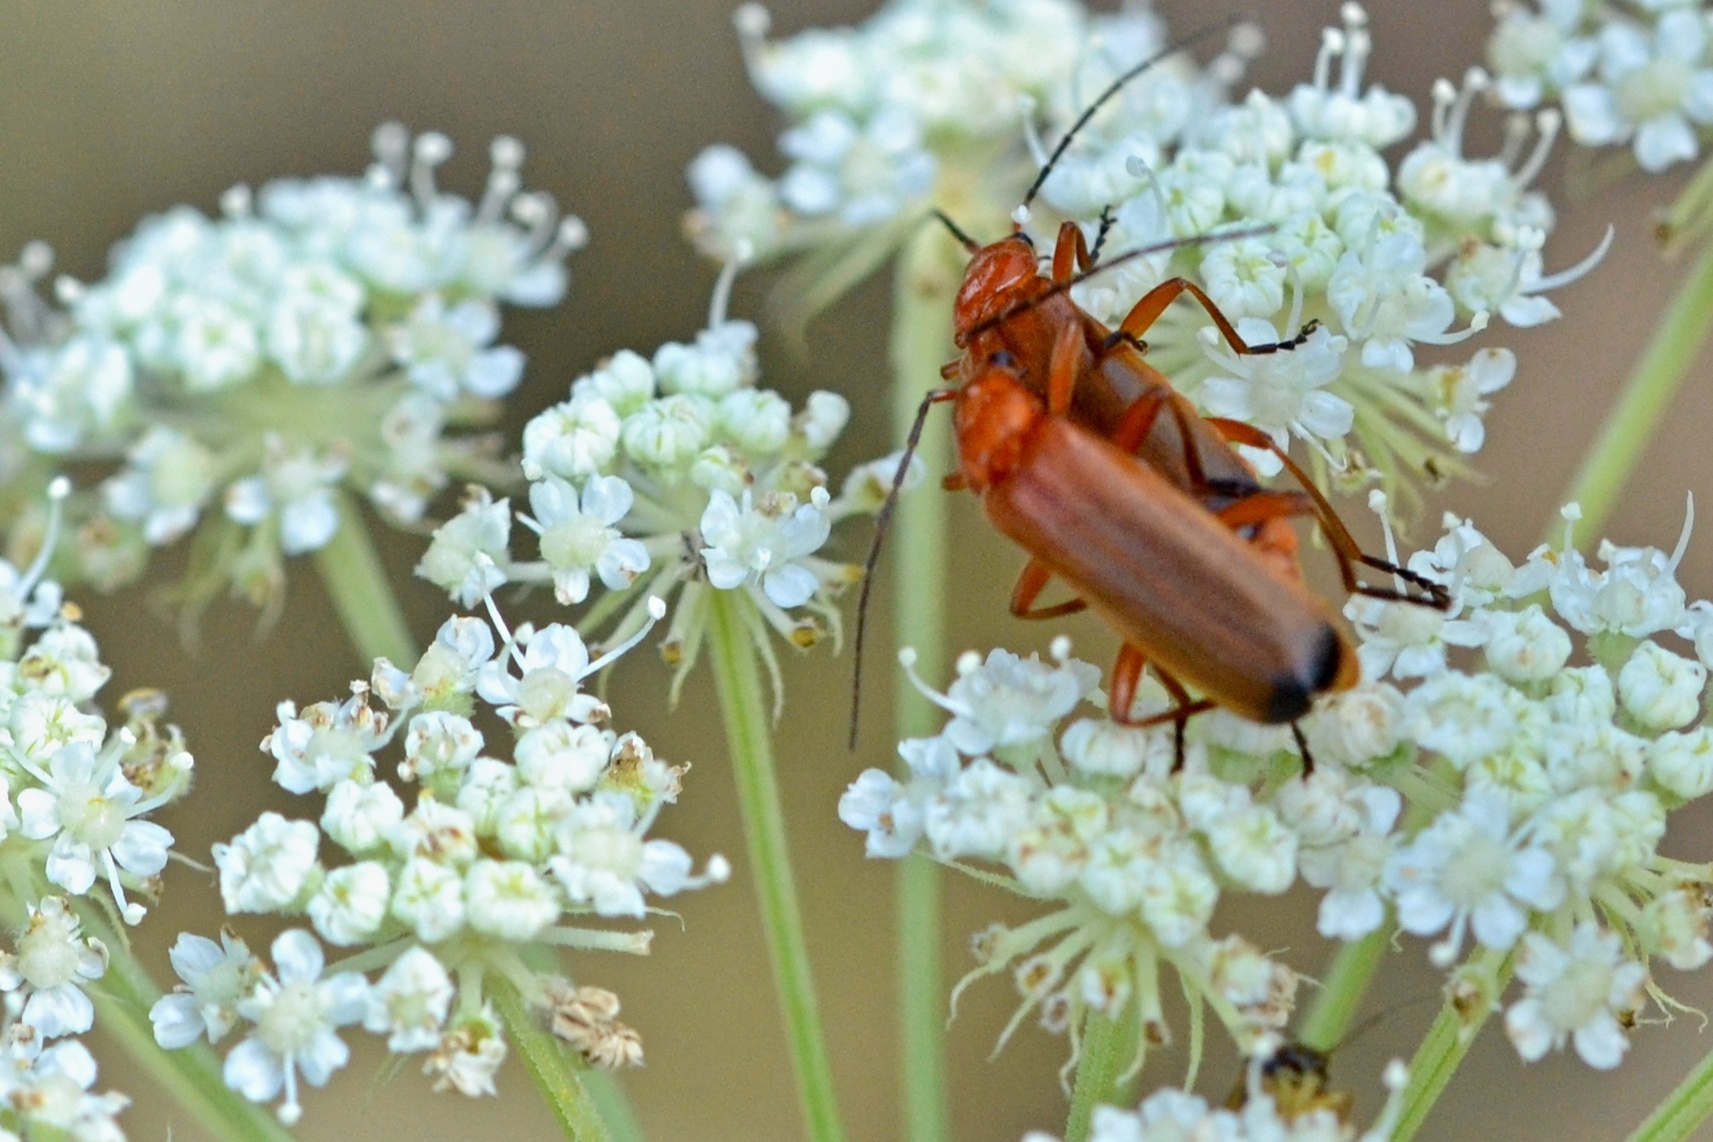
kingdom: Animalia
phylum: Arthropoda
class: Insecta
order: Coleoptera
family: Cantharidae
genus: Rhagonycha
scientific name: Rhagonycha fulva
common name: Common red soldier beetle
